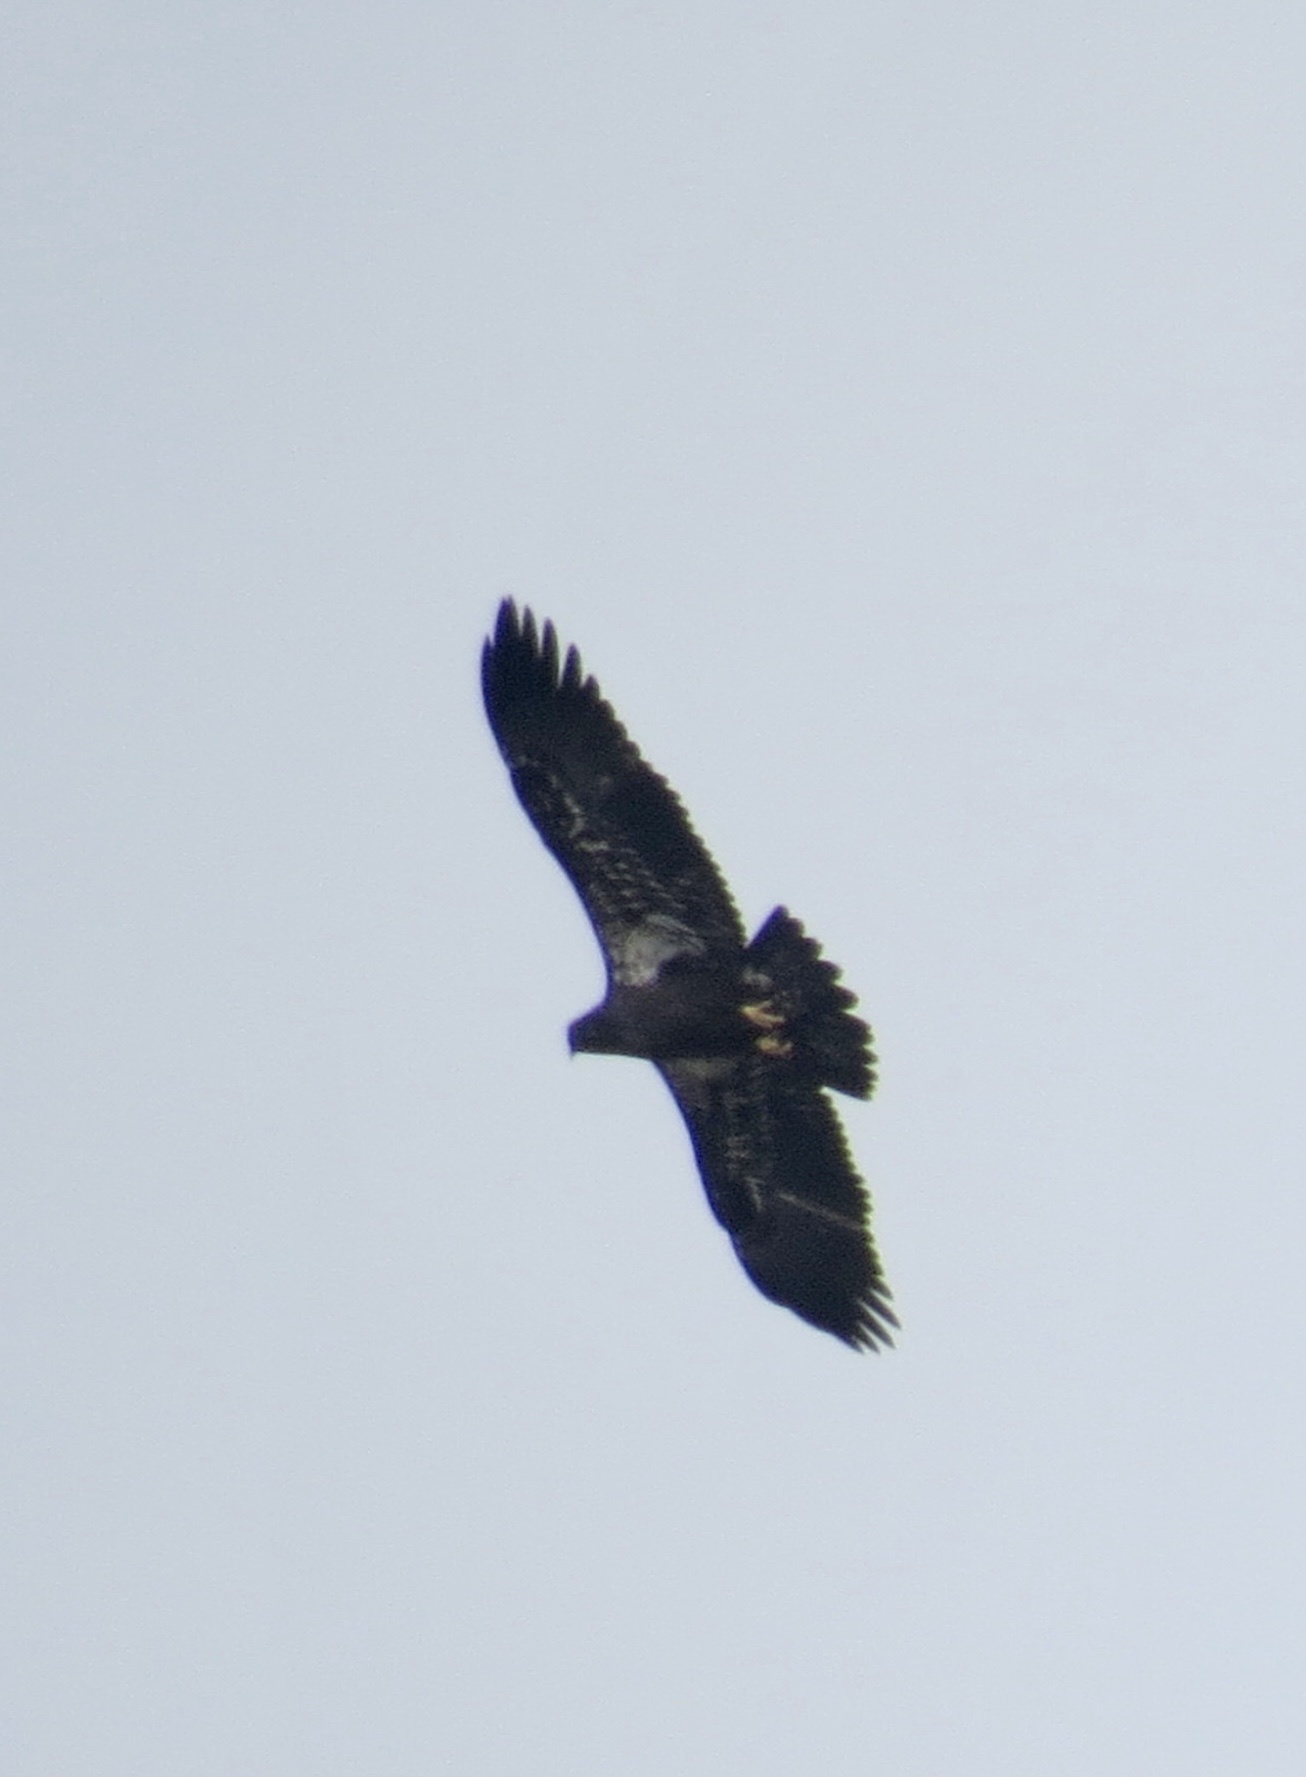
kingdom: Animalia
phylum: Chordata
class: Aves
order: Accipitriformes
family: Accipitridae
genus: Haliaeetus
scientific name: Haliaeetus leucocephalus
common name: Bald eagle
